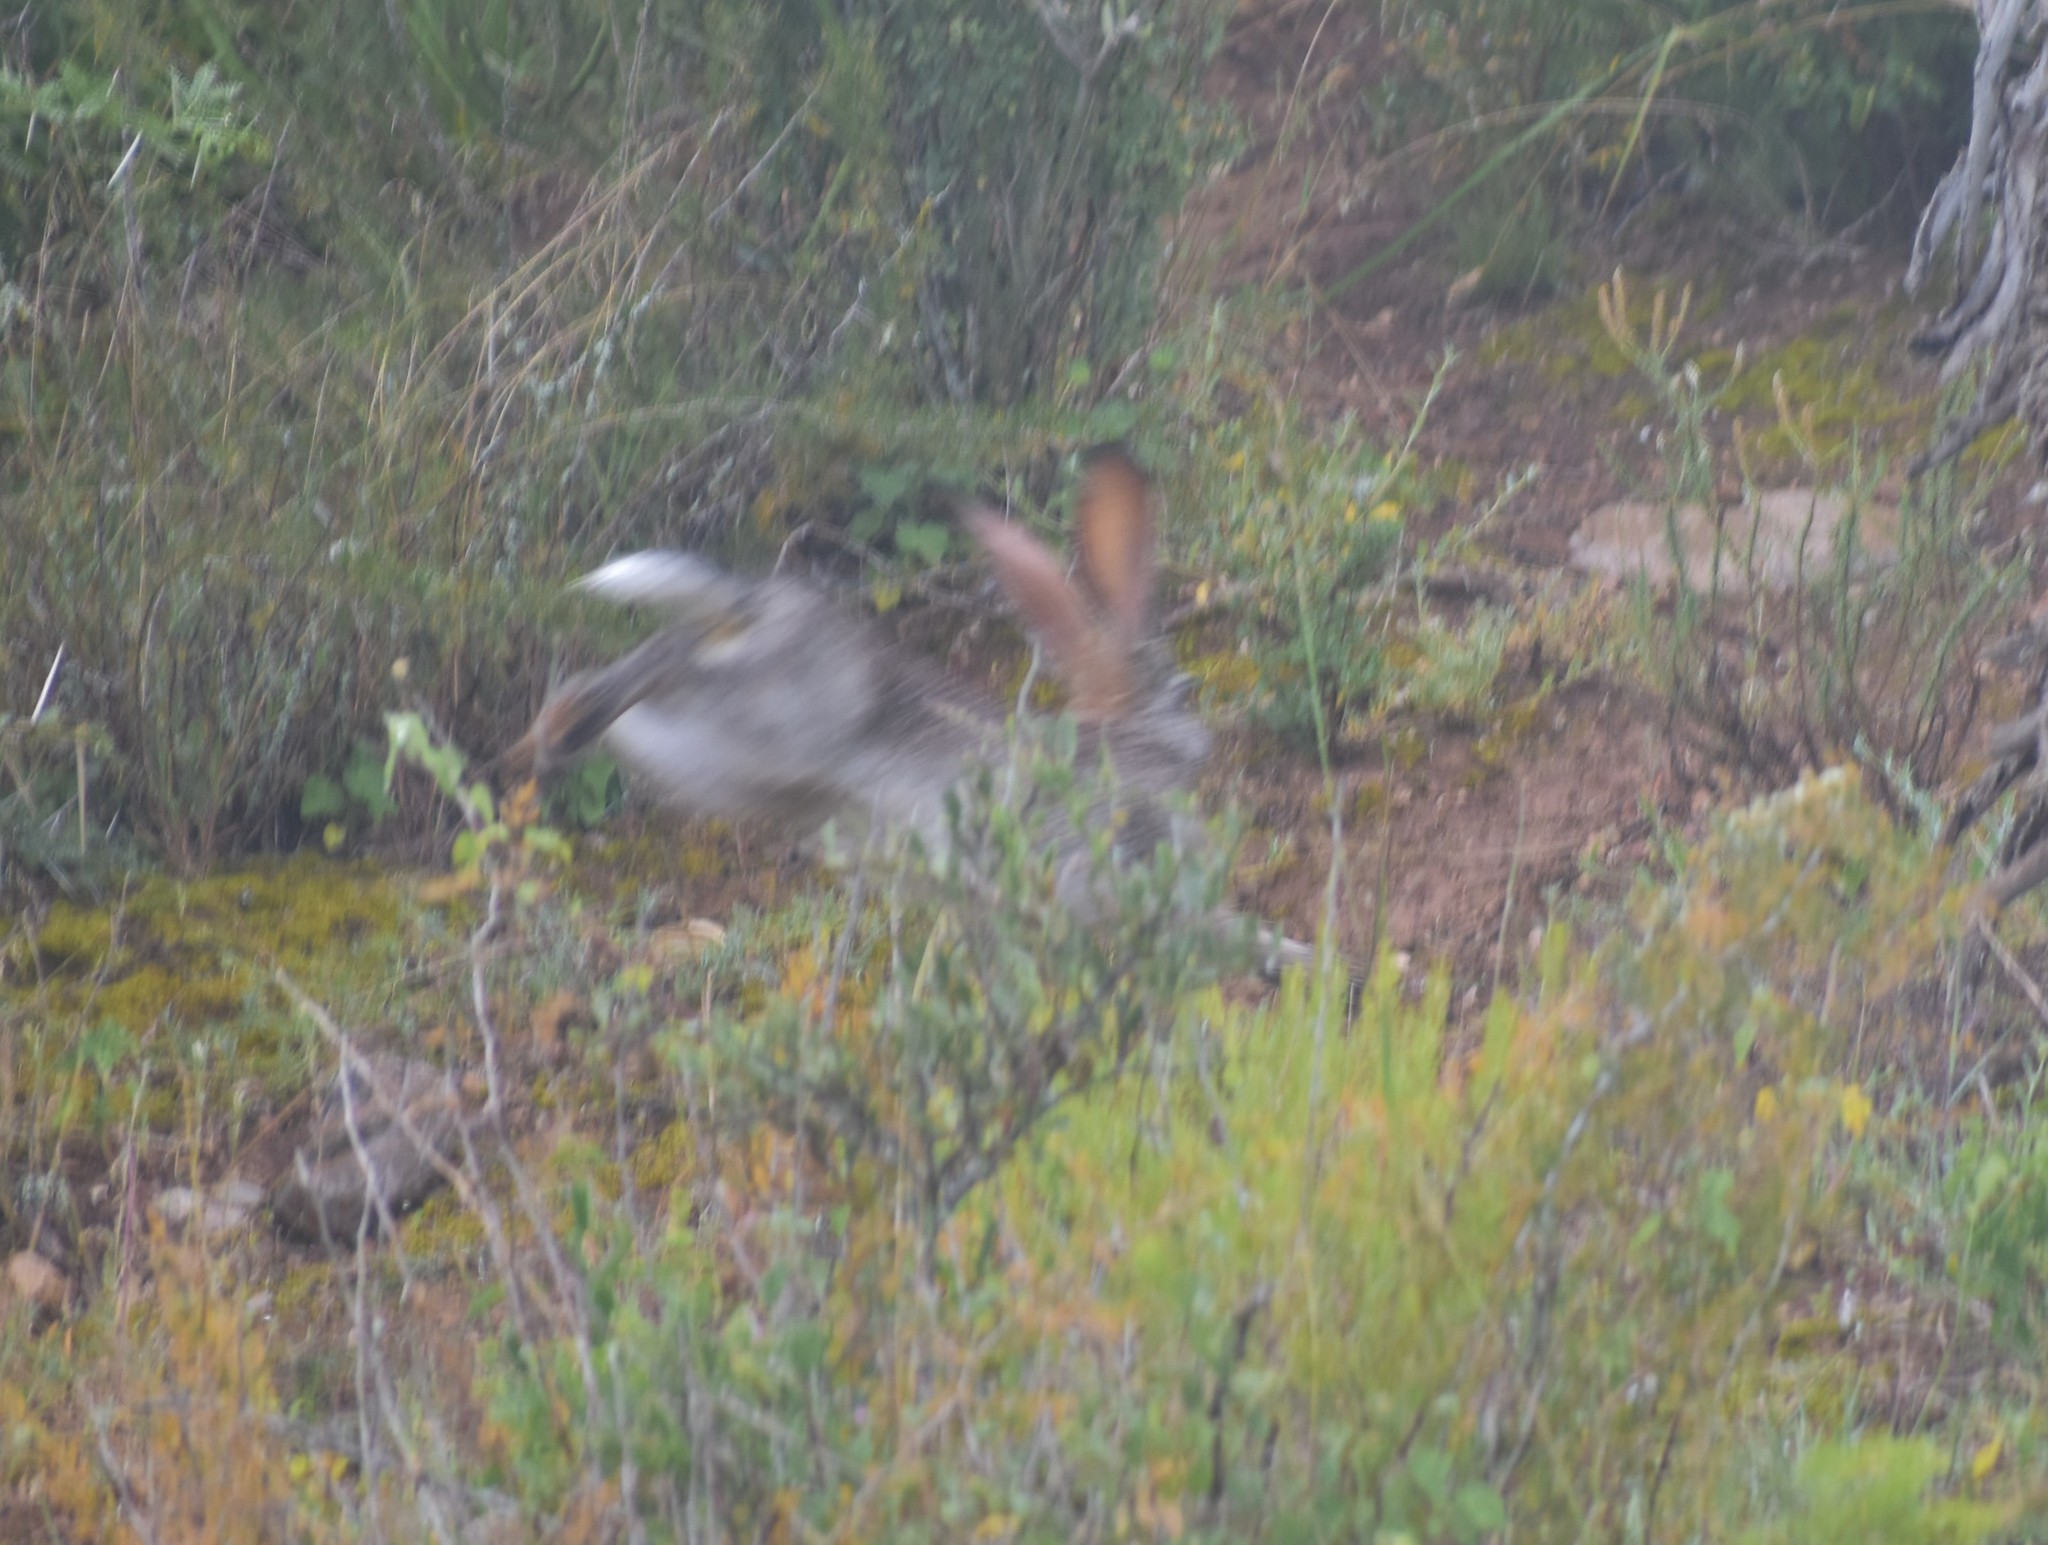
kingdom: Animalia
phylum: Chordata
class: Mammalia
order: Lagomorpha
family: Leporidae
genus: Lepus
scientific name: Lepus saxatilis
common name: Scrub hare
